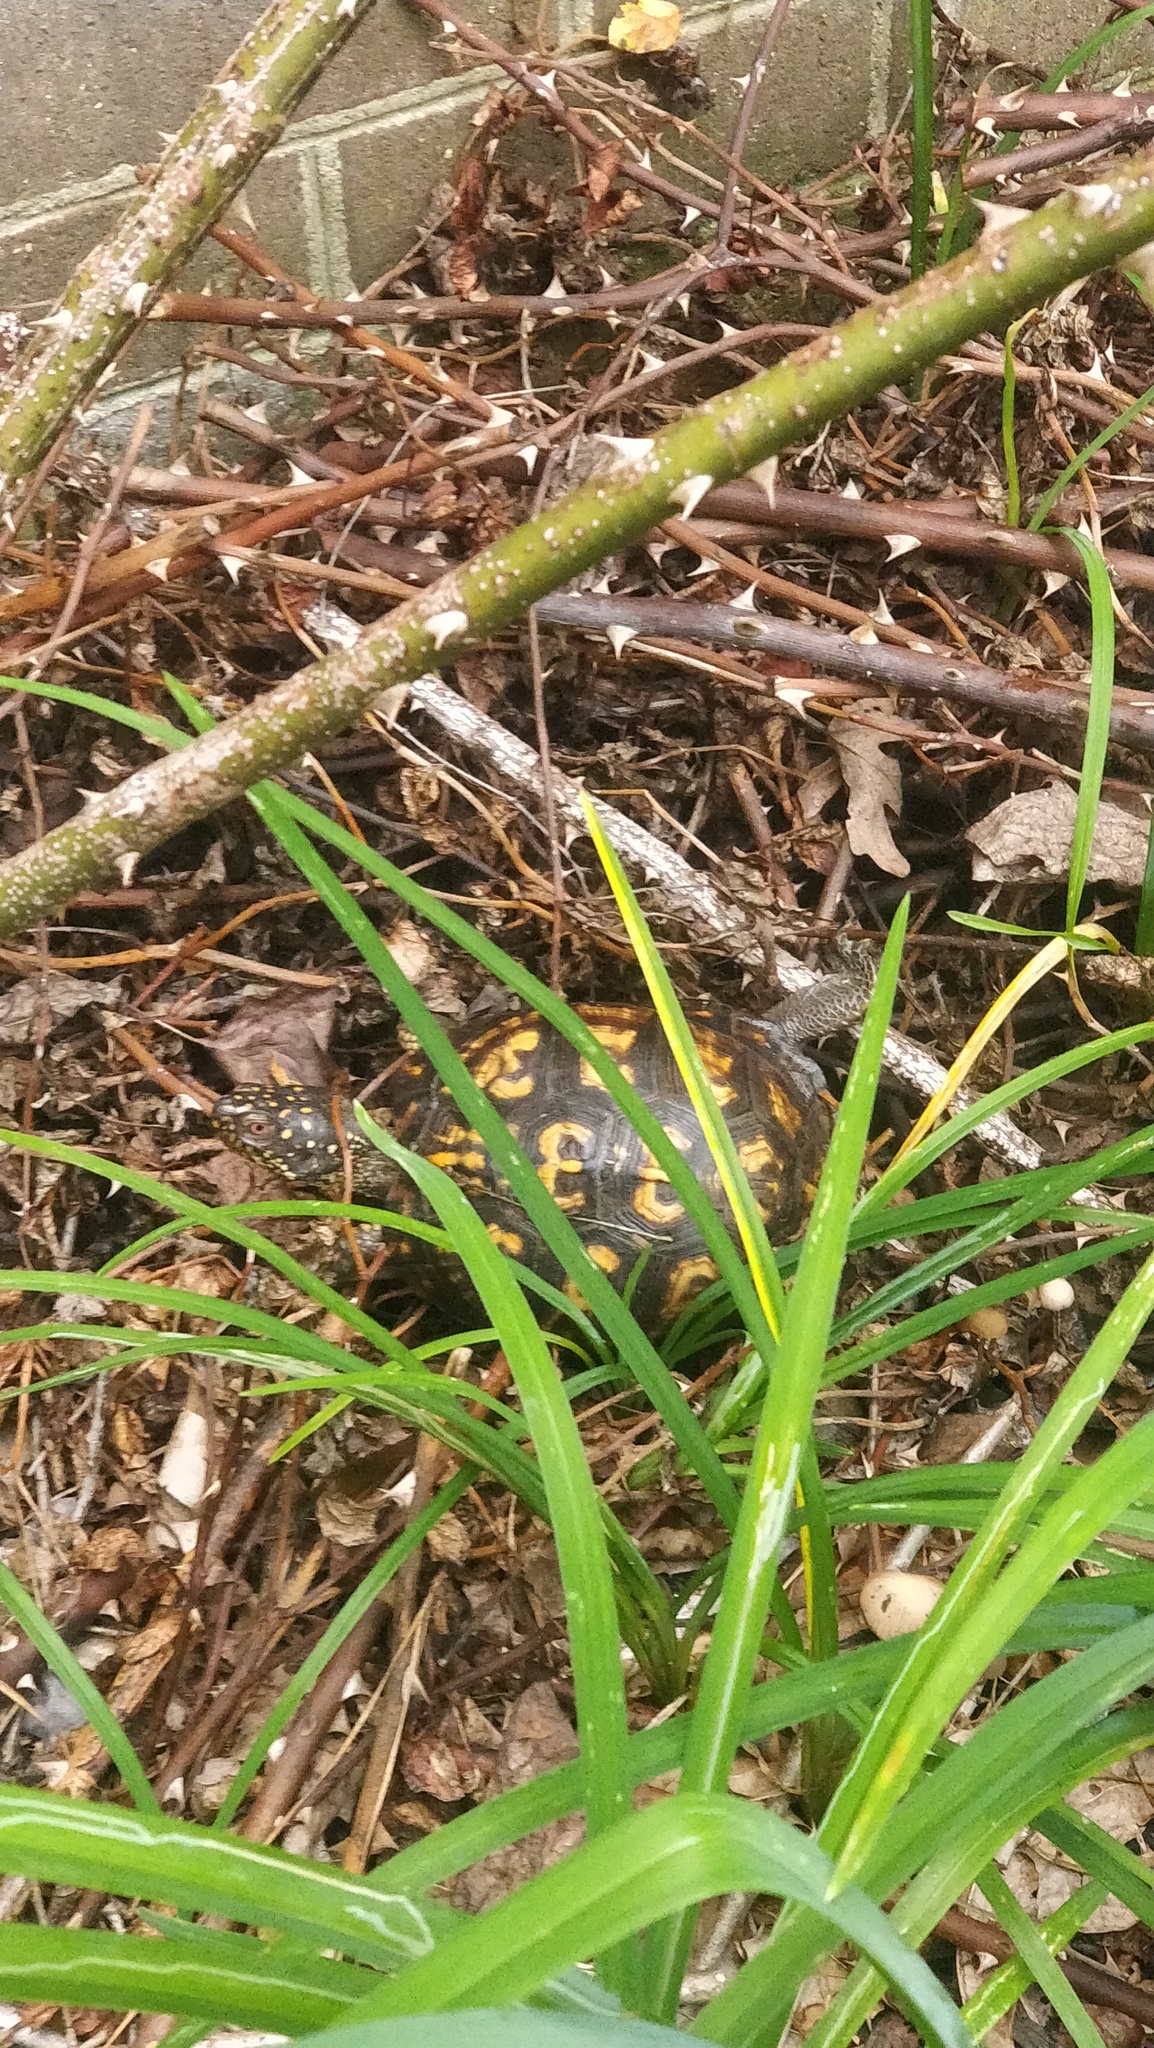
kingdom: Animalia
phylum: Chordata
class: Testudines
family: Emydidae
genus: Terrapene
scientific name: Terrapene carolina
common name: Common box turtle
